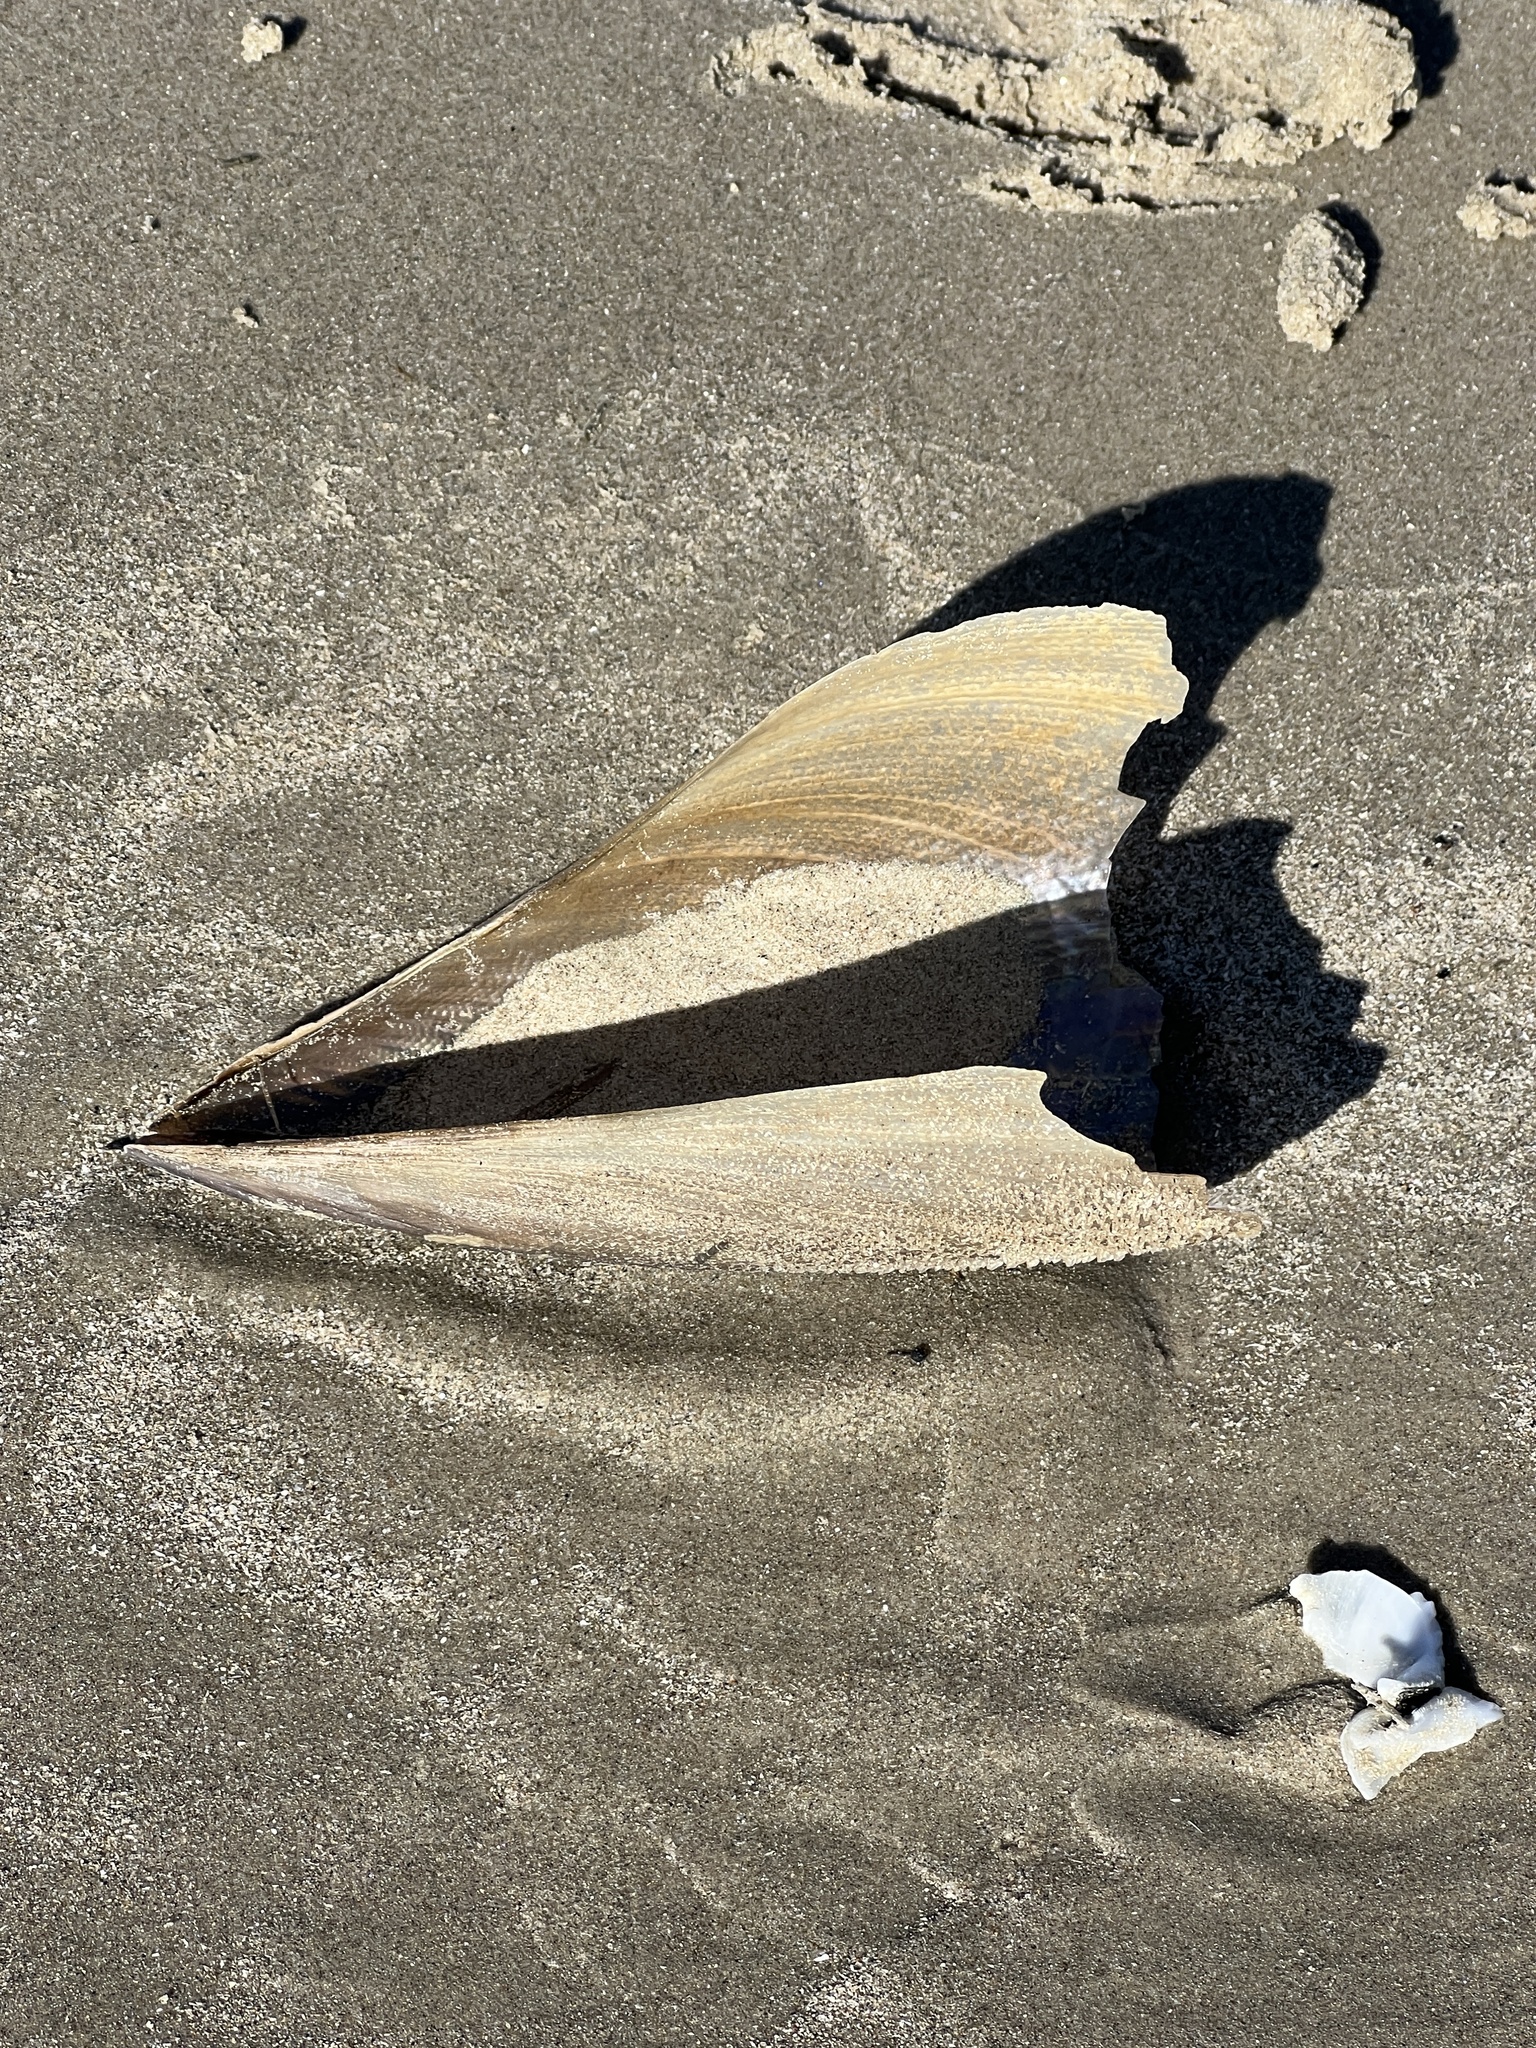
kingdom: Animalia
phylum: Mollusca
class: Bivalvia
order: Ostreida
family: Pinnidae
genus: Atrina
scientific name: Atrina serrata
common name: Saw-toothed penshell
